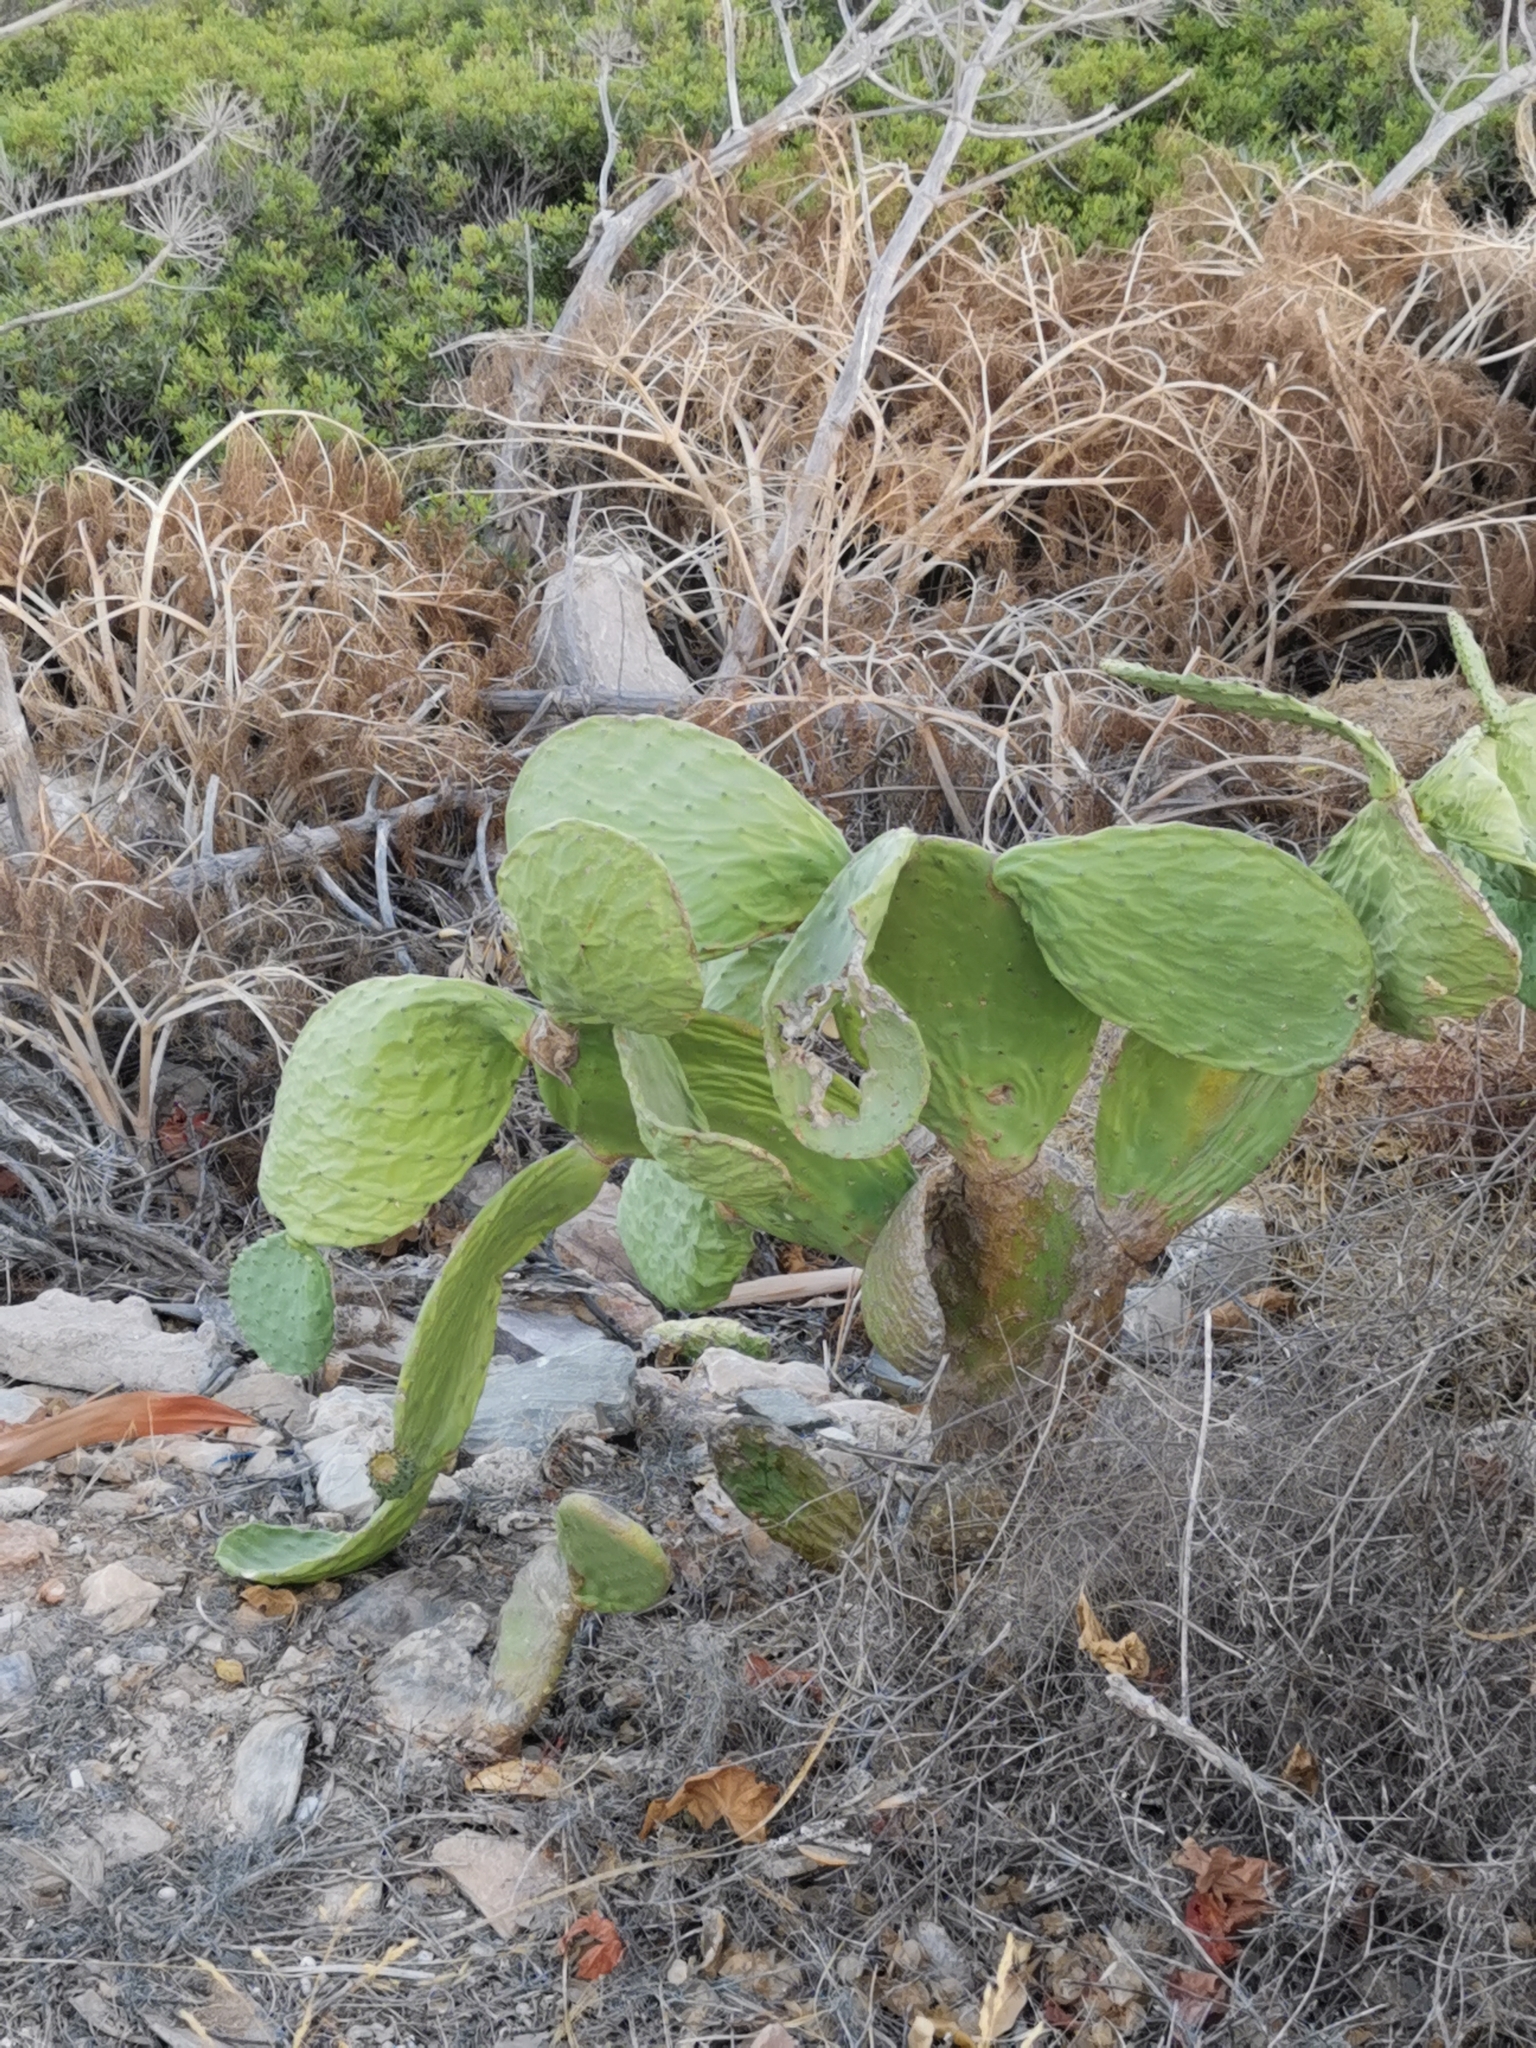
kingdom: Plantae
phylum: Tracheophyta
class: Magnoliopsida
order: Caryophyllales
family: Cactaceae
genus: Opuntia
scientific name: Opuntia ficus-indica
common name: Barbary fig
